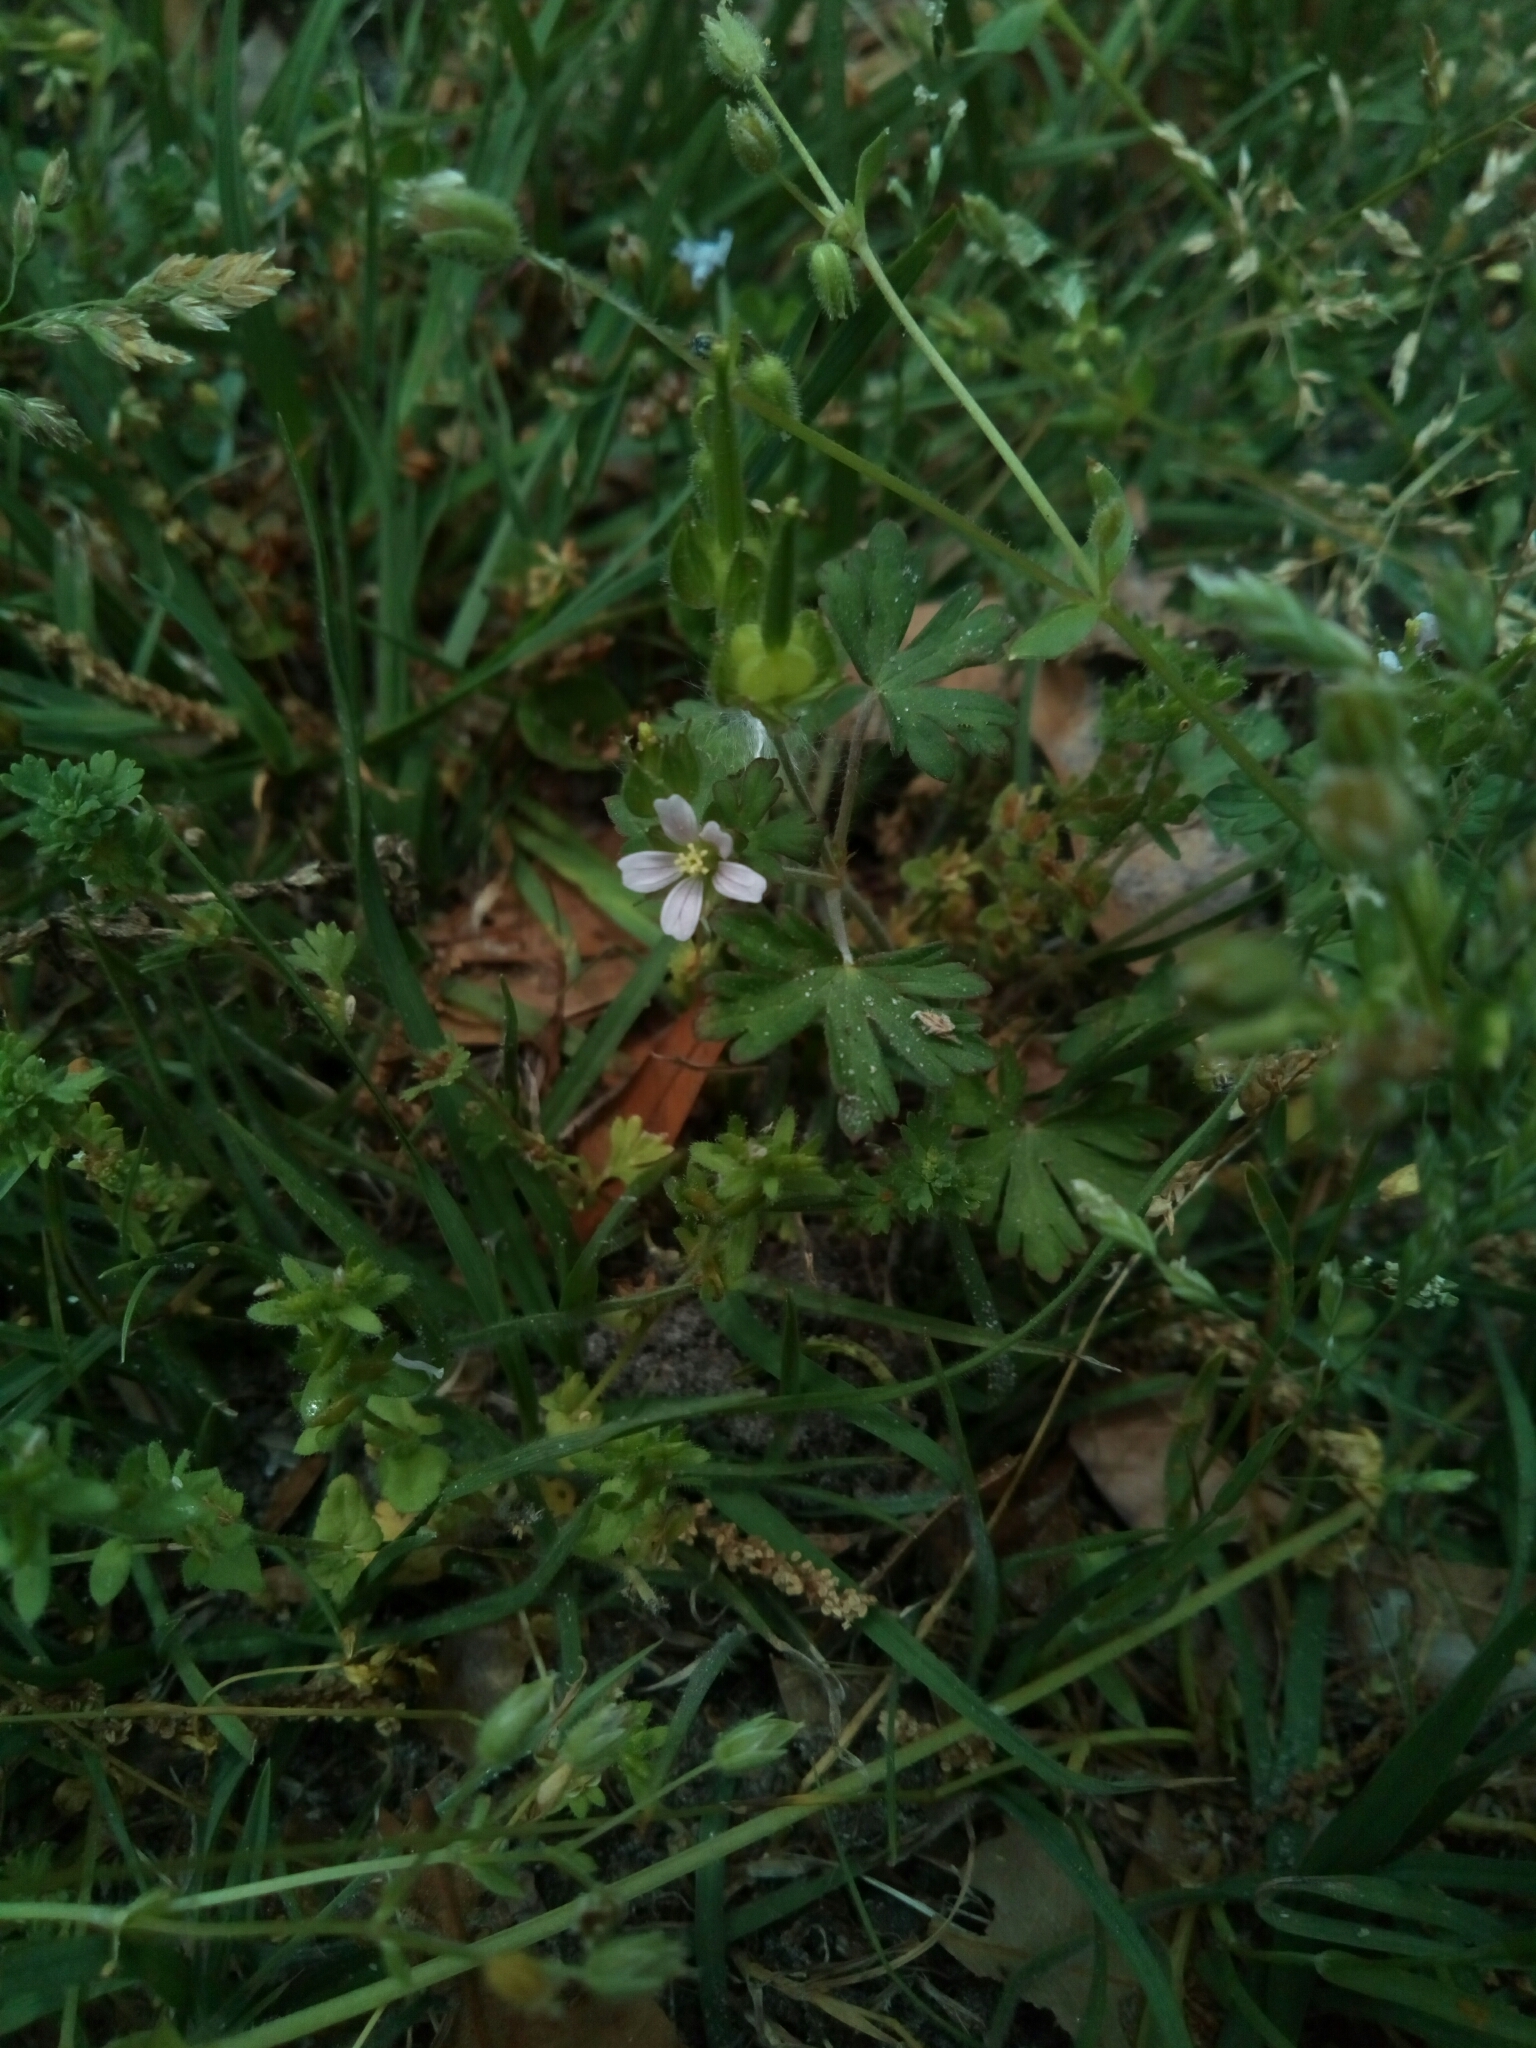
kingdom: Plantae
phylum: Tracheophyta
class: Magnoliopsida
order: Geraniales
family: Geraniaceae
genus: Geranium
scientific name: Geranium carolinianum
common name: Carolina crane's-bill
